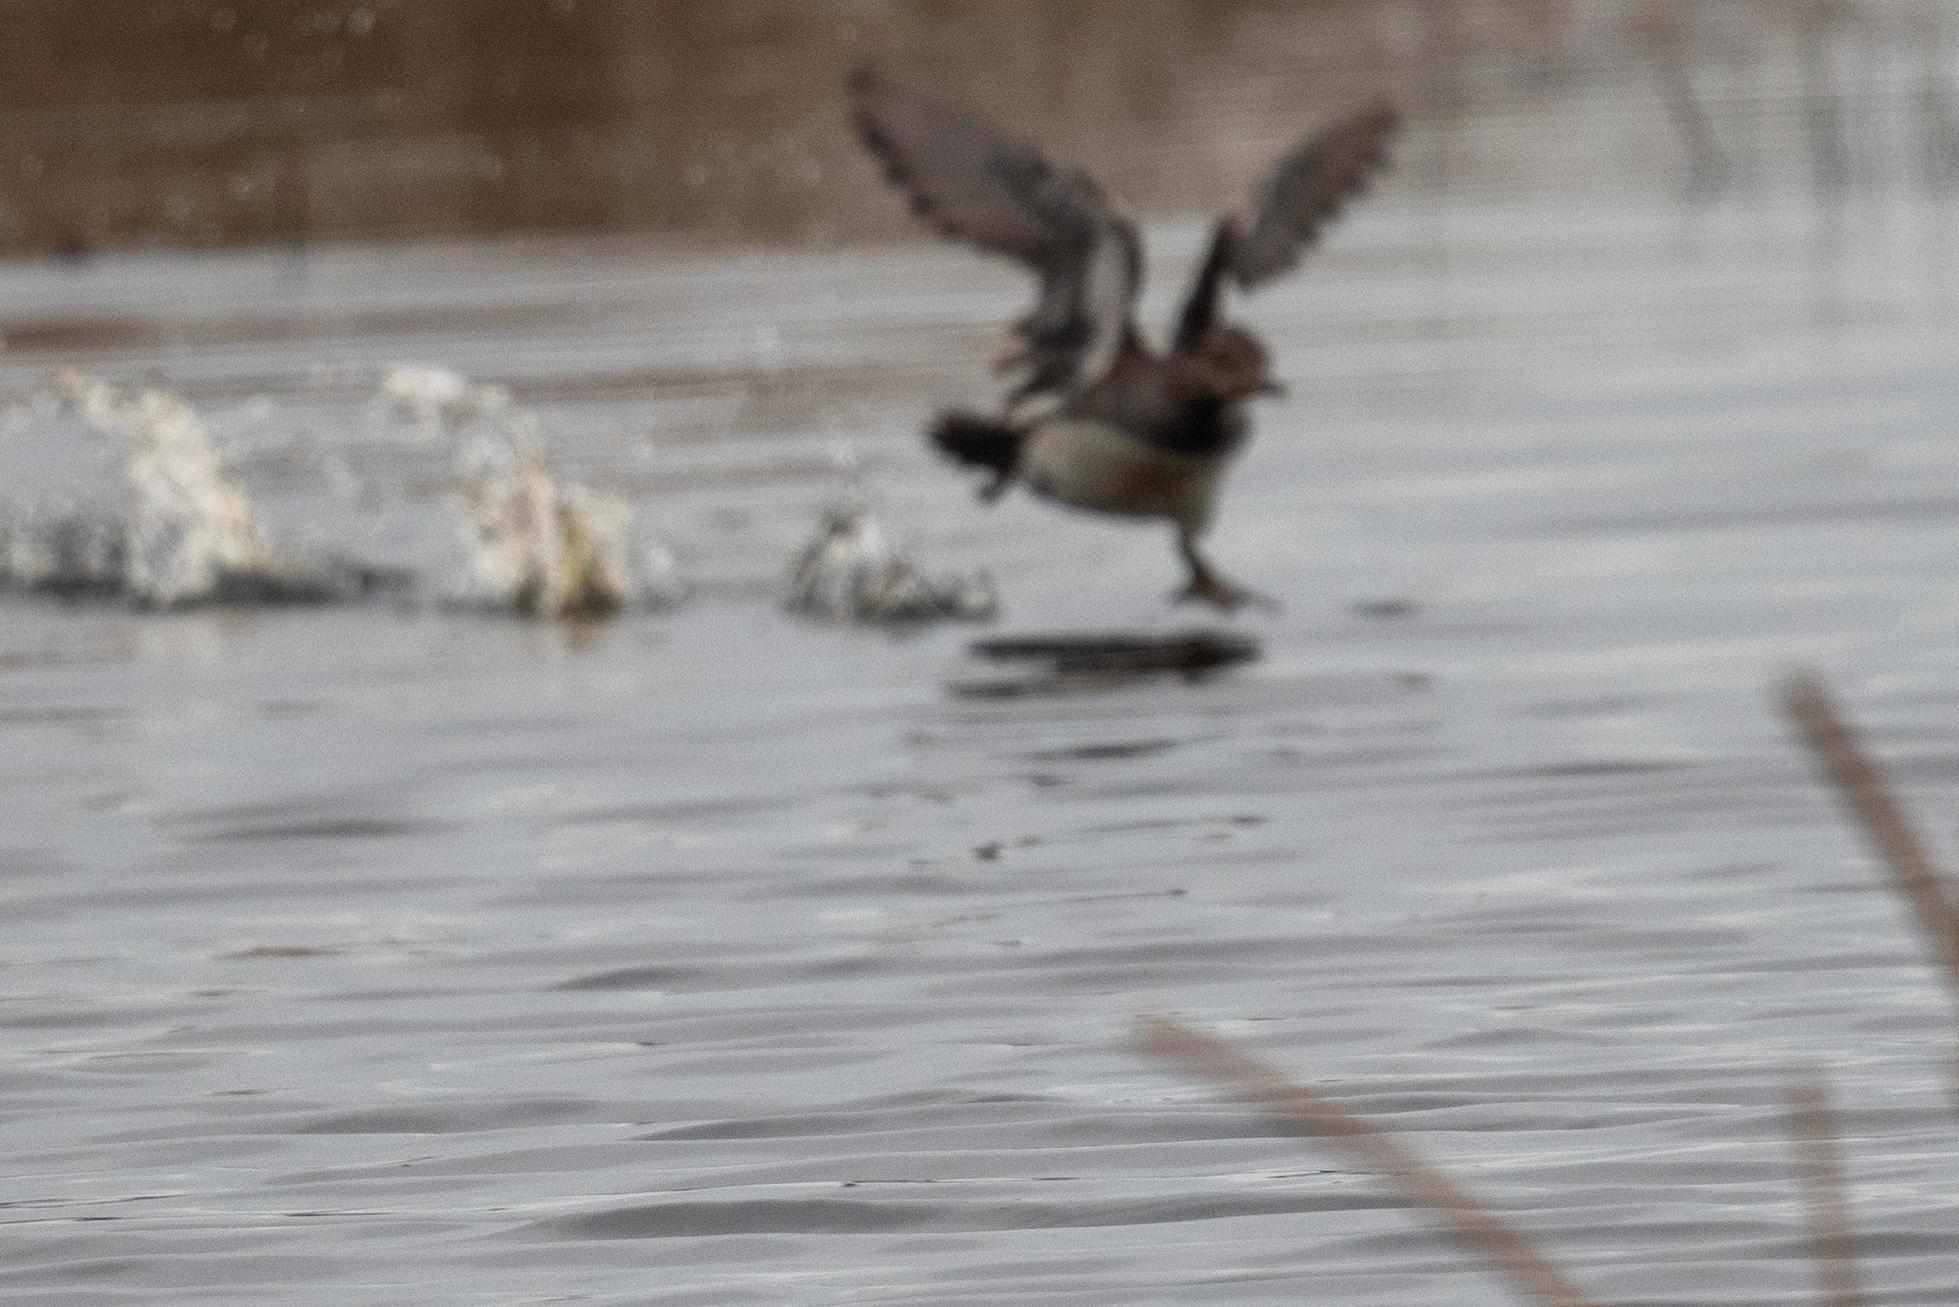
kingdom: Animalia
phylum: Chordata
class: Aves
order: Anseriformes
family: Anatidae
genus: Lophodytes
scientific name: Lophodytes cucullatus
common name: Hooded merganser
